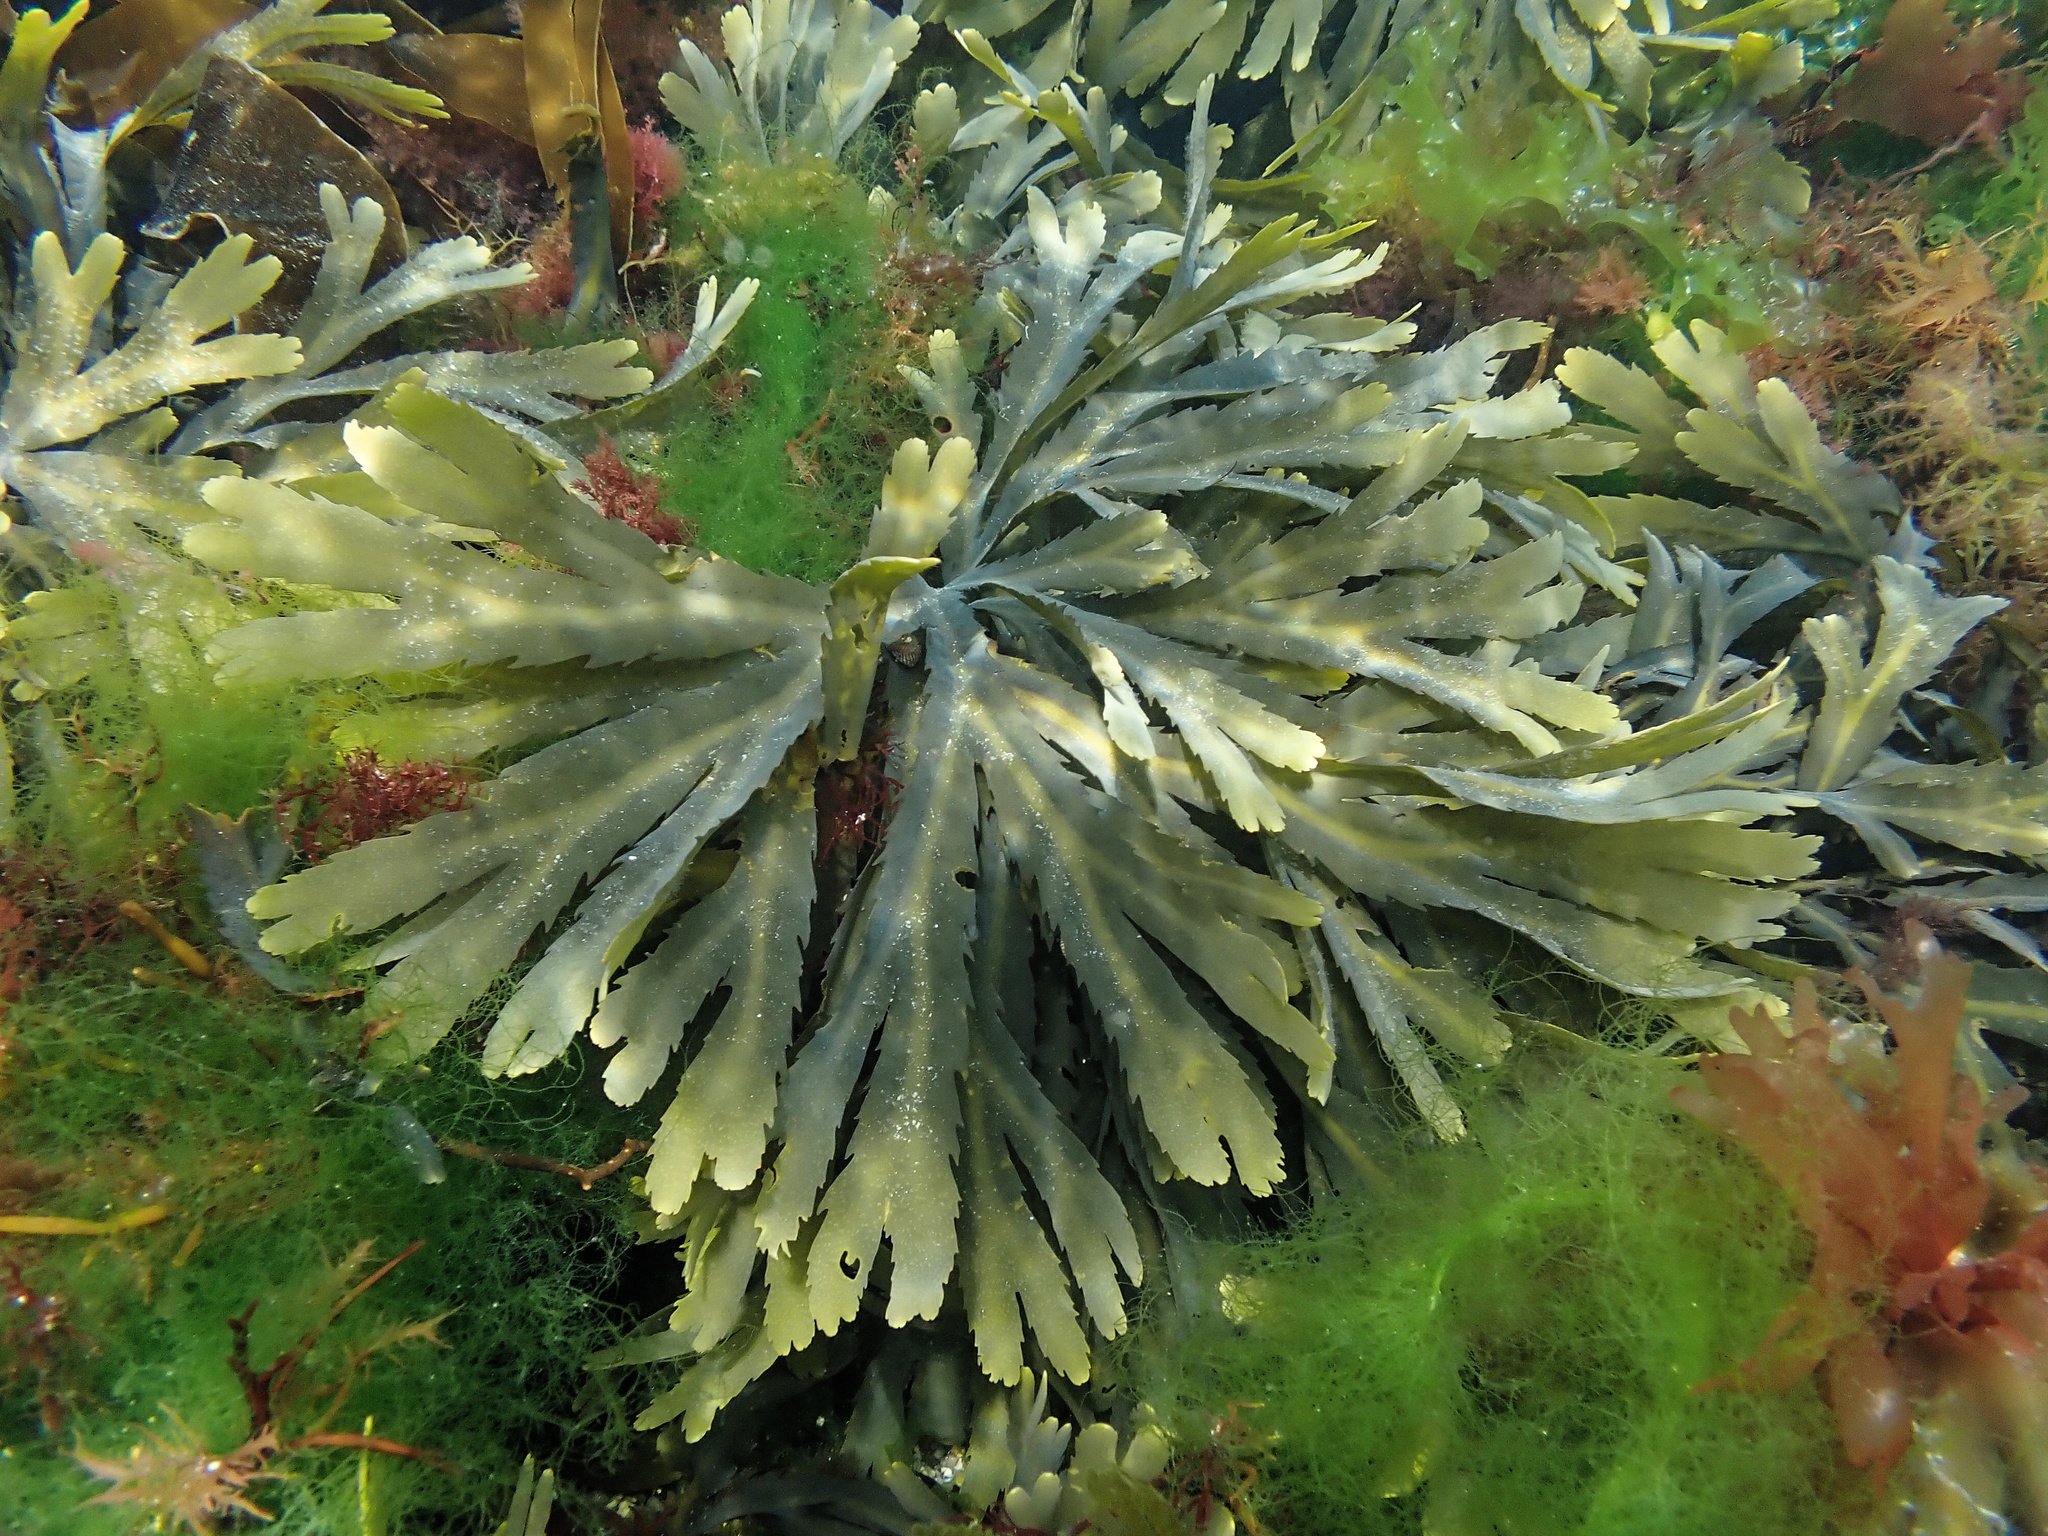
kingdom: Chromista
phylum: Ochrophyta
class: Phaeophyceae
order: Fucales
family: Fucaceae
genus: Fucus
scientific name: Fucus serratus
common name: Toothed wrack
